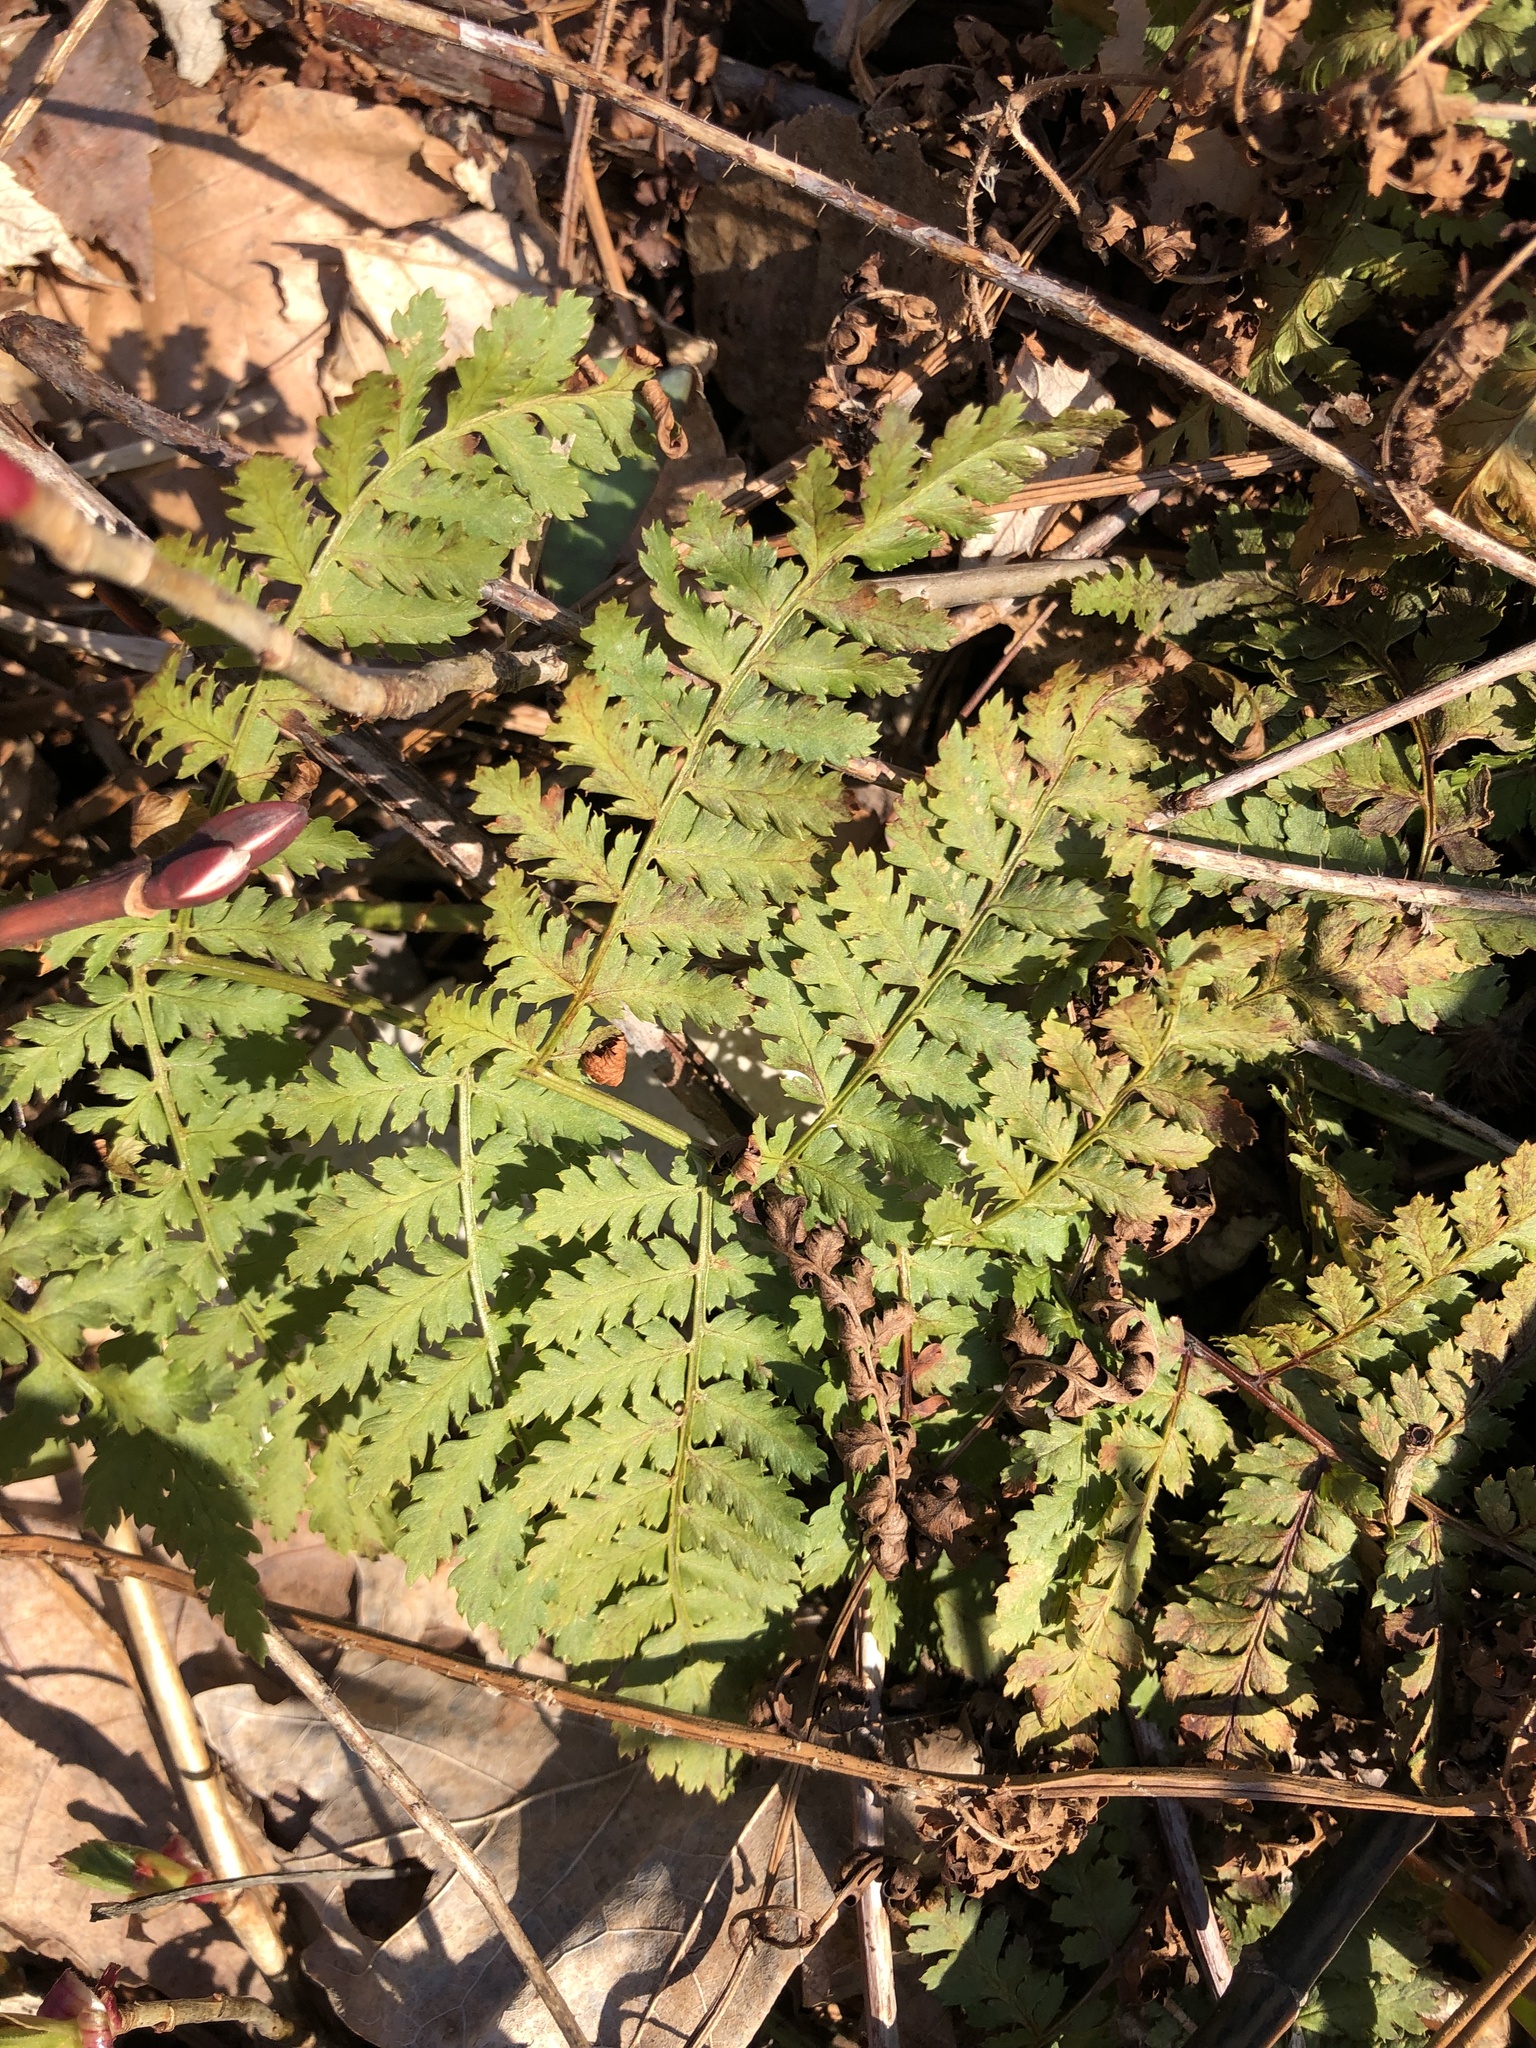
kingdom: Plantae
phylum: Tracheophyta
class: Polypodiopsida
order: Polypodiales
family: Dryopteridaceae
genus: Dryopteris
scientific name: Dryopteris intermedia
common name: Evergreen wood fern
